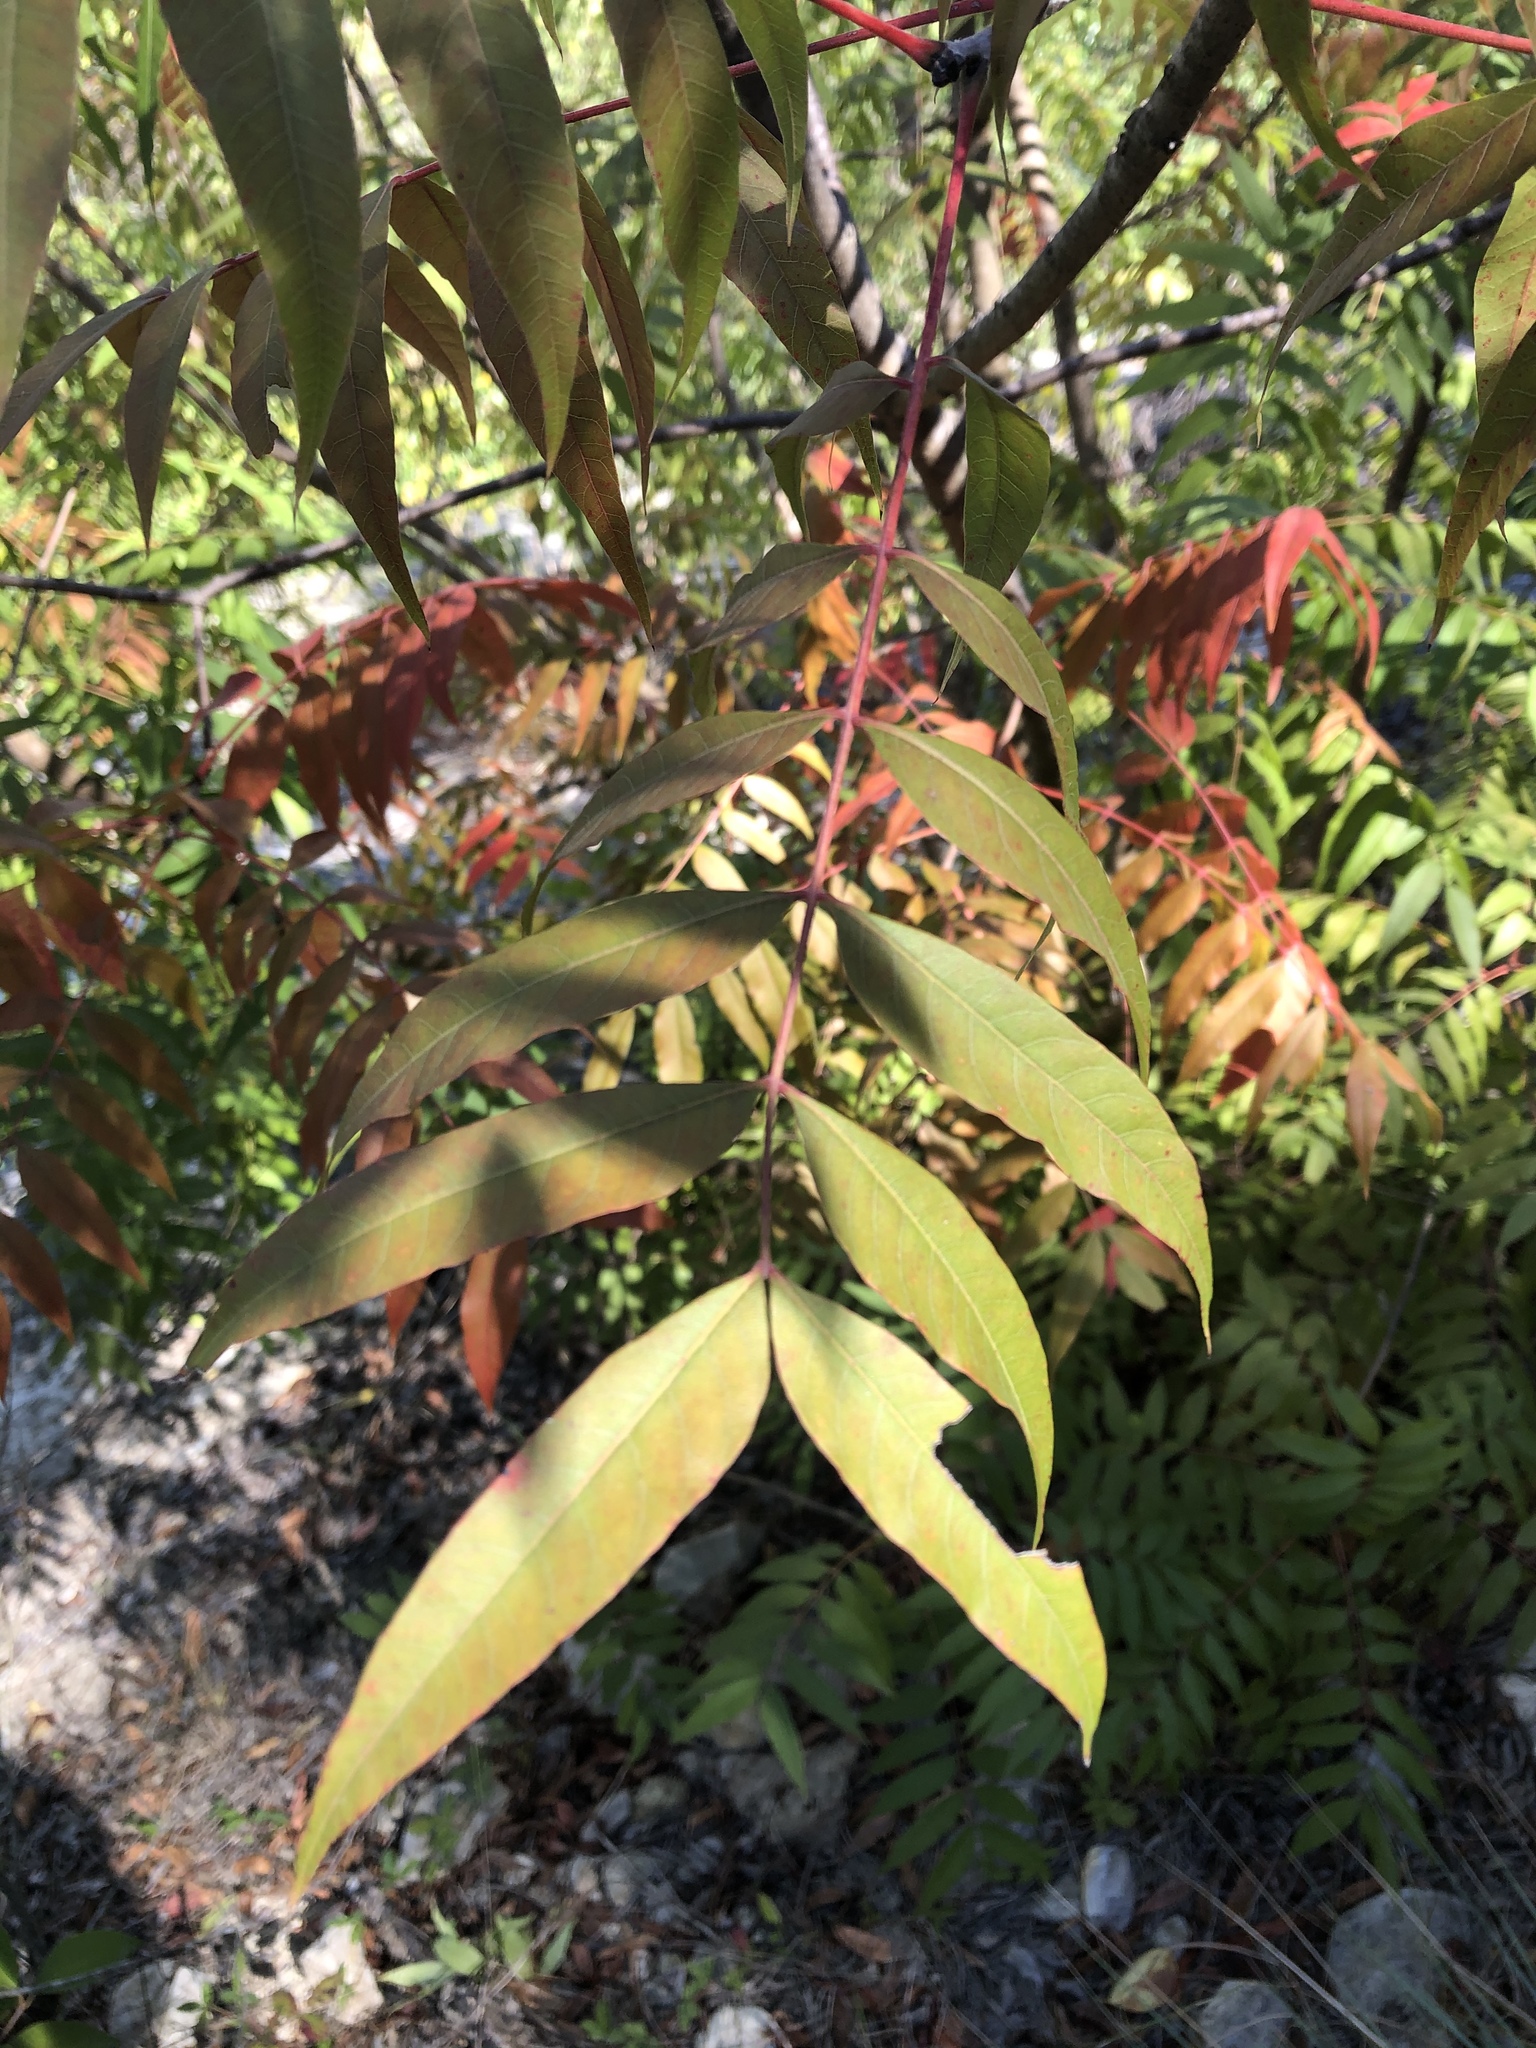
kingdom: Plantae
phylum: Tracheophyta
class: Magnoliopsida
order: Sapindales
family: Anacardiaceae
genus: Pistacia
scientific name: Pistacia chinensis
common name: Chinese pistache
